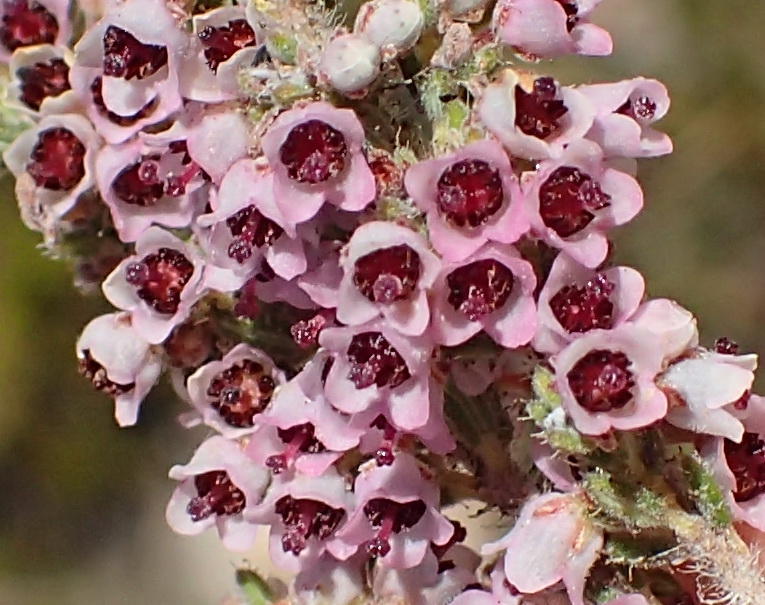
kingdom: Plantae
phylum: Tracheophyta
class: Magnoliopsida
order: Ericales
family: Ericaceae
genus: Erica
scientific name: Erica glandulipila
